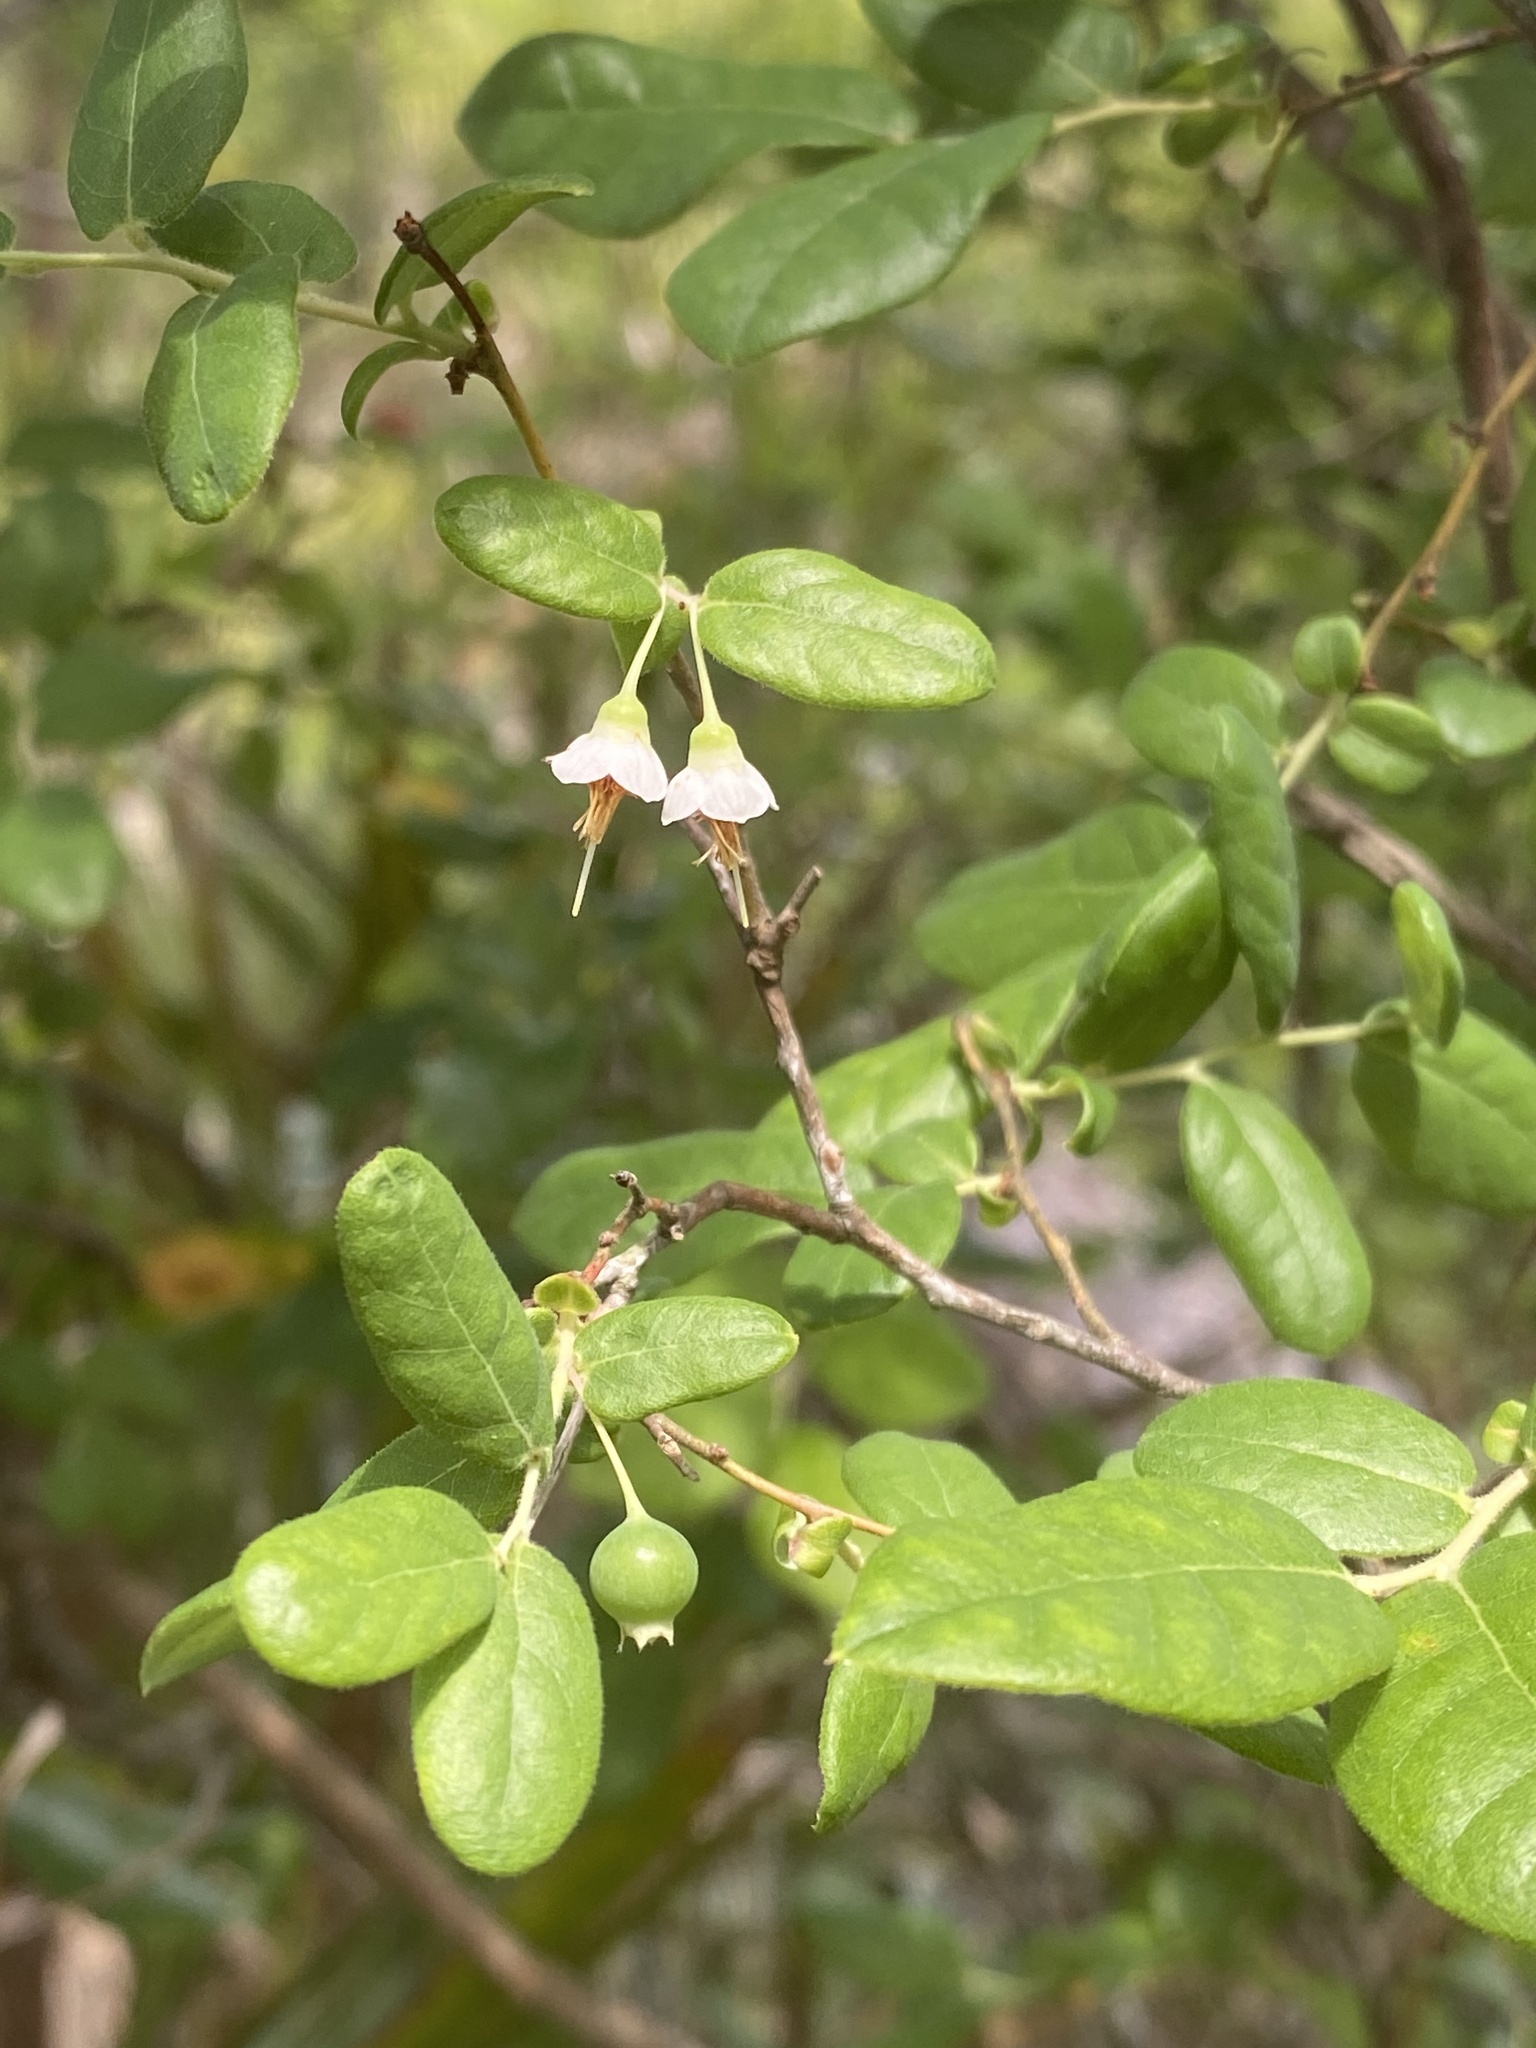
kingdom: Plantae
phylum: Tracheophyta
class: Magnoliopsida
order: Ericales
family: Ericaceae
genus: Vaccinium
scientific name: Vaccinium stamineum
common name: Deerberry
